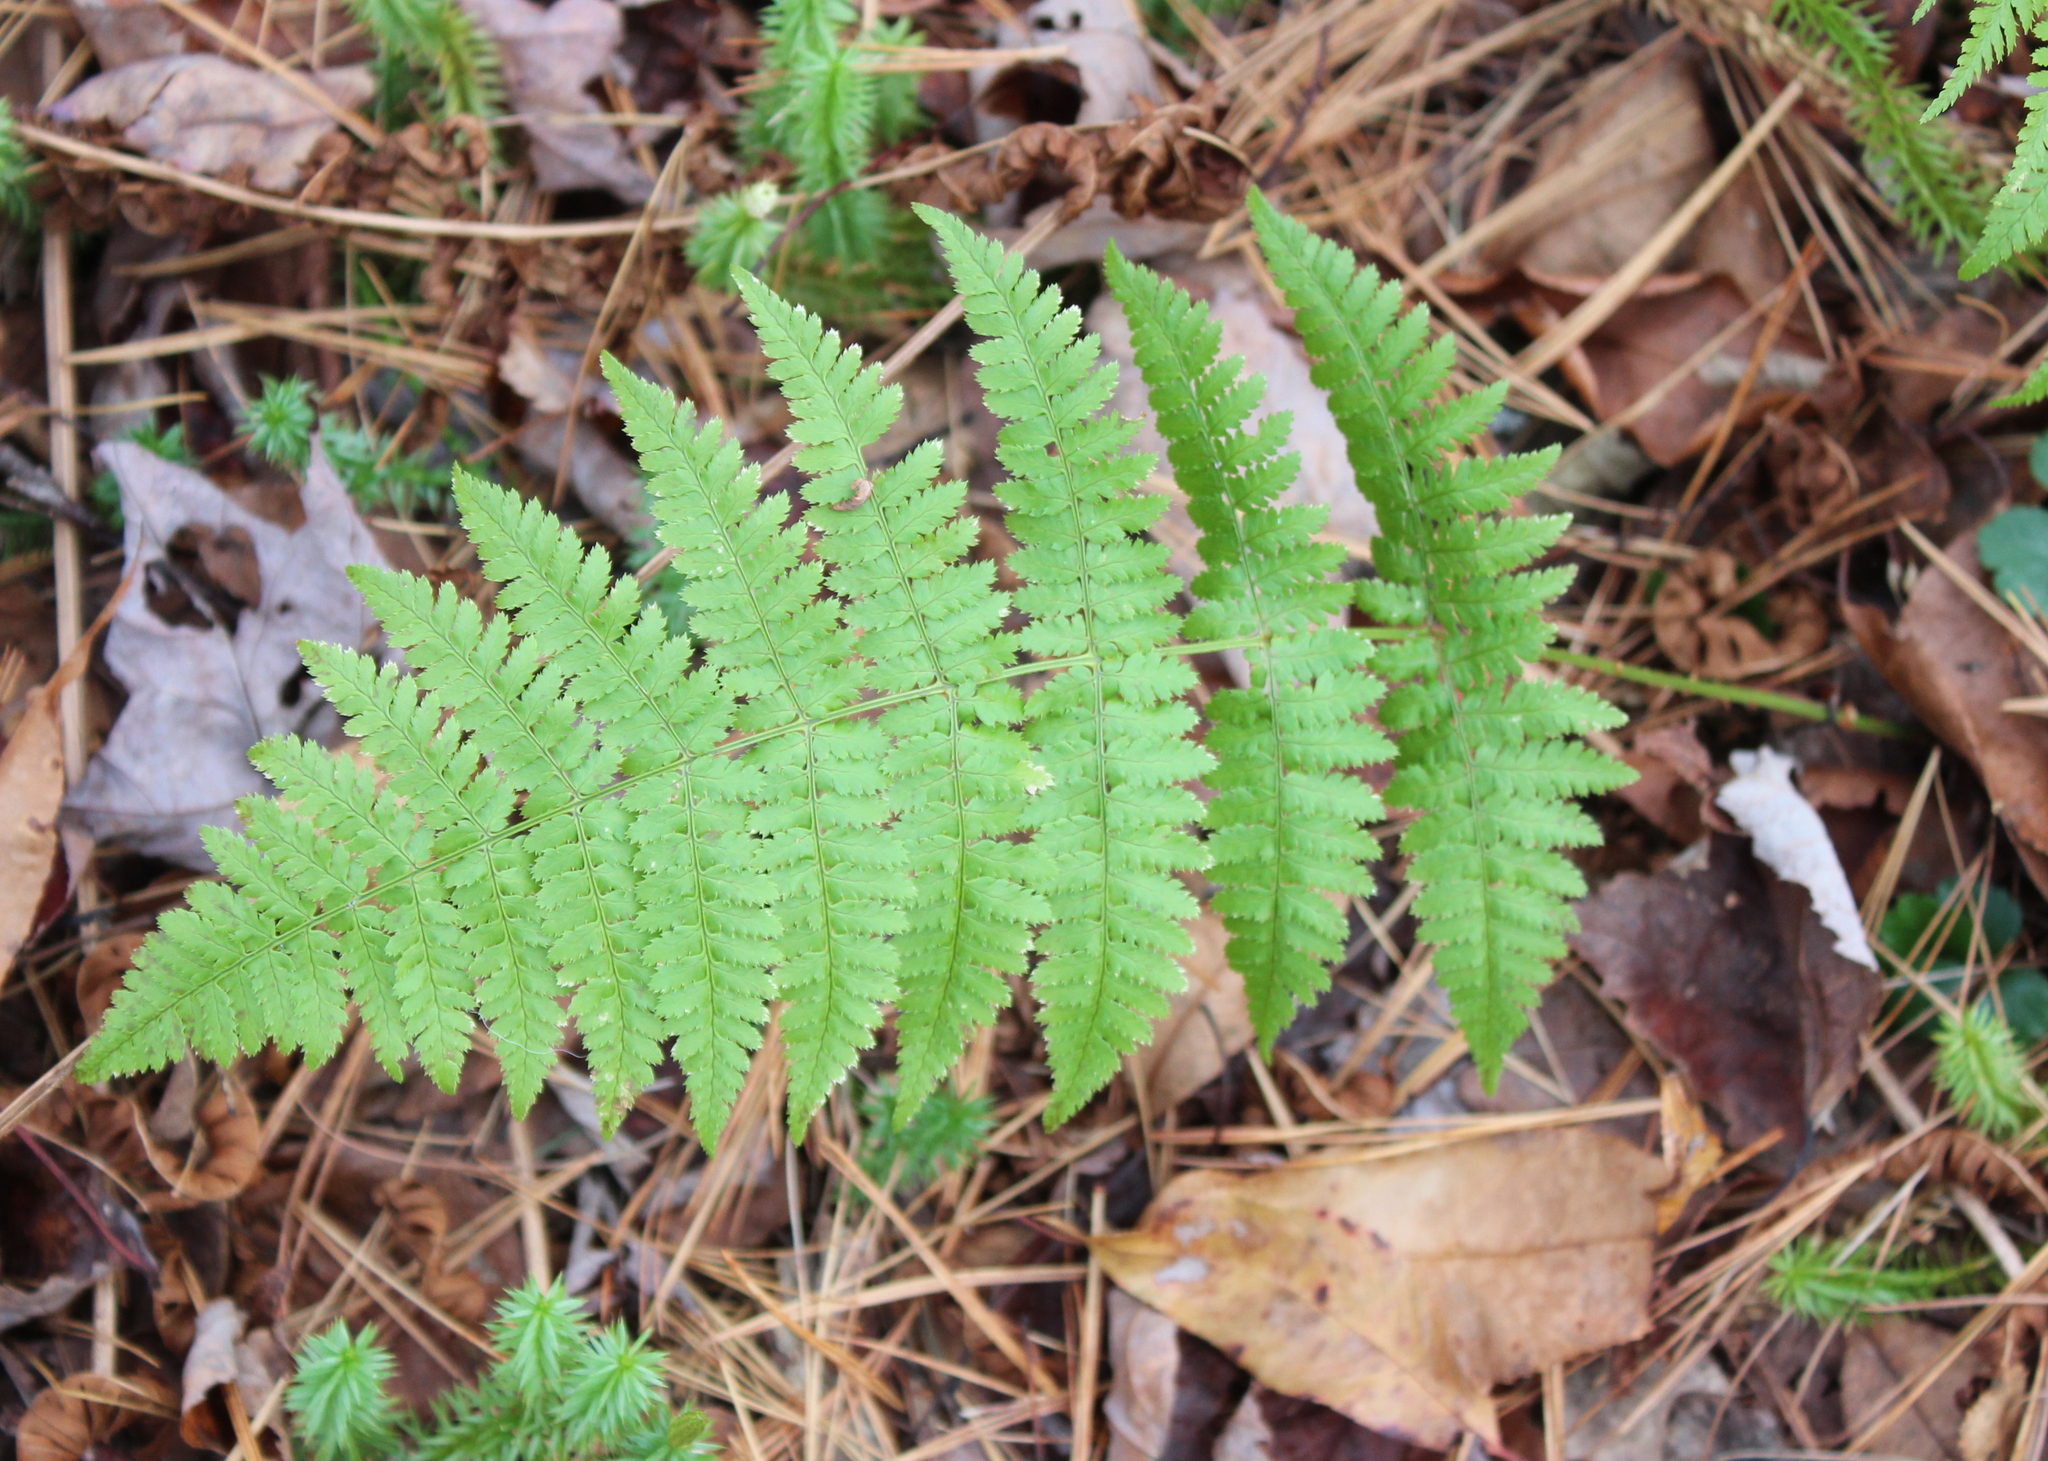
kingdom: Plantae
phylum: Tracheophyta
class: Polypodiopsida
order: Polypodiales
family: Dryopteridaceae
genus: Dryopteris
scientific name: Dryopteris intermedia
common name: Evergreen wood fern
